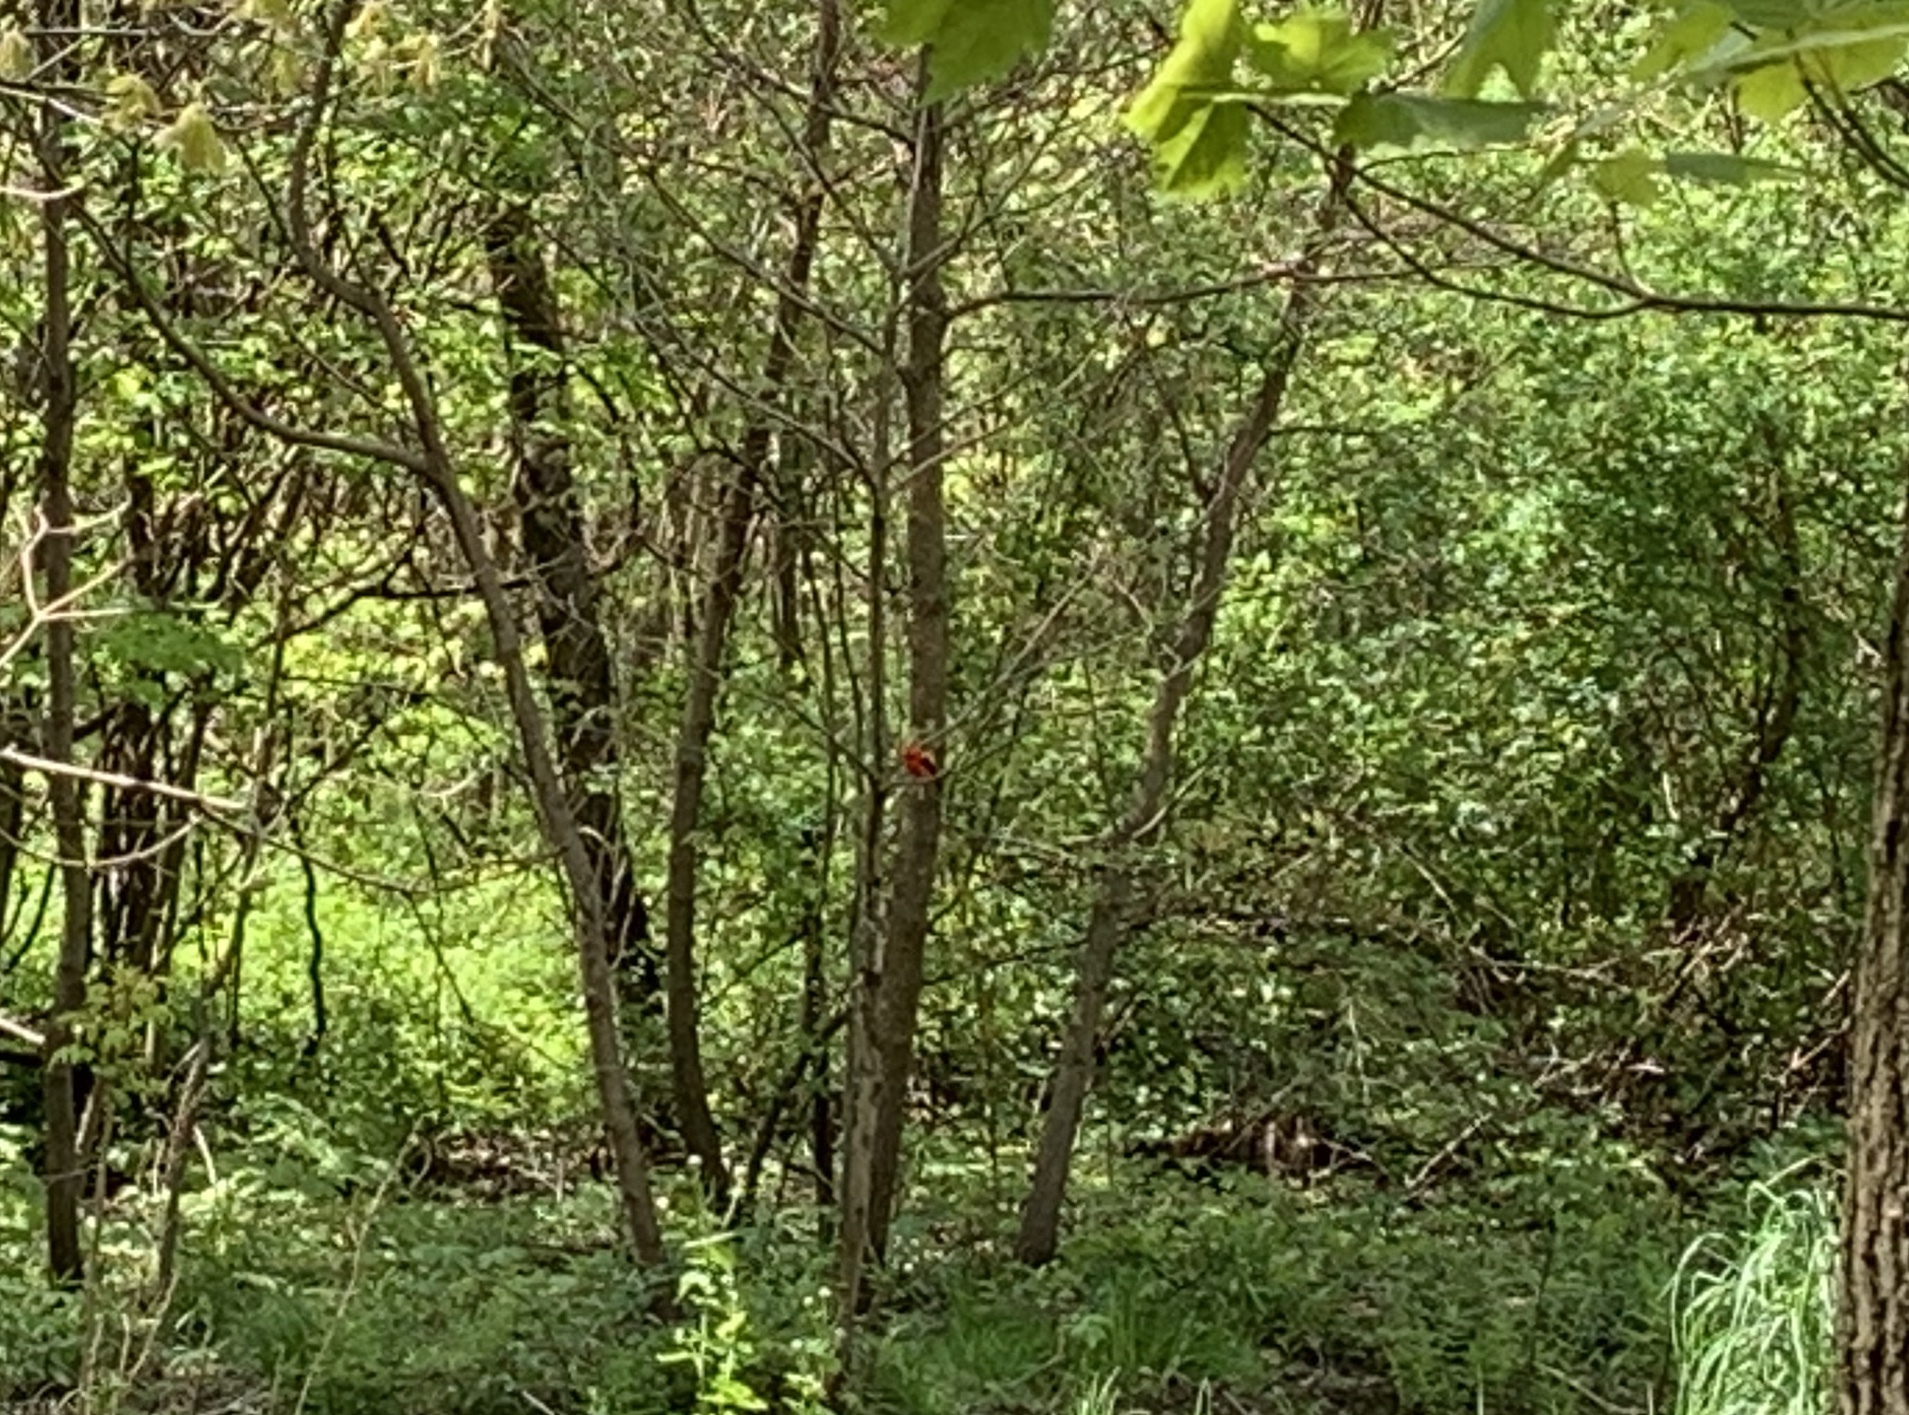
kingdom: Animalia
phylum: Chordata
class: Aves
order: Passeriformes
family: Cardinalidae
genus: Piranga
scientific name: Piranga olivacea
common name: Scarlet tanager
